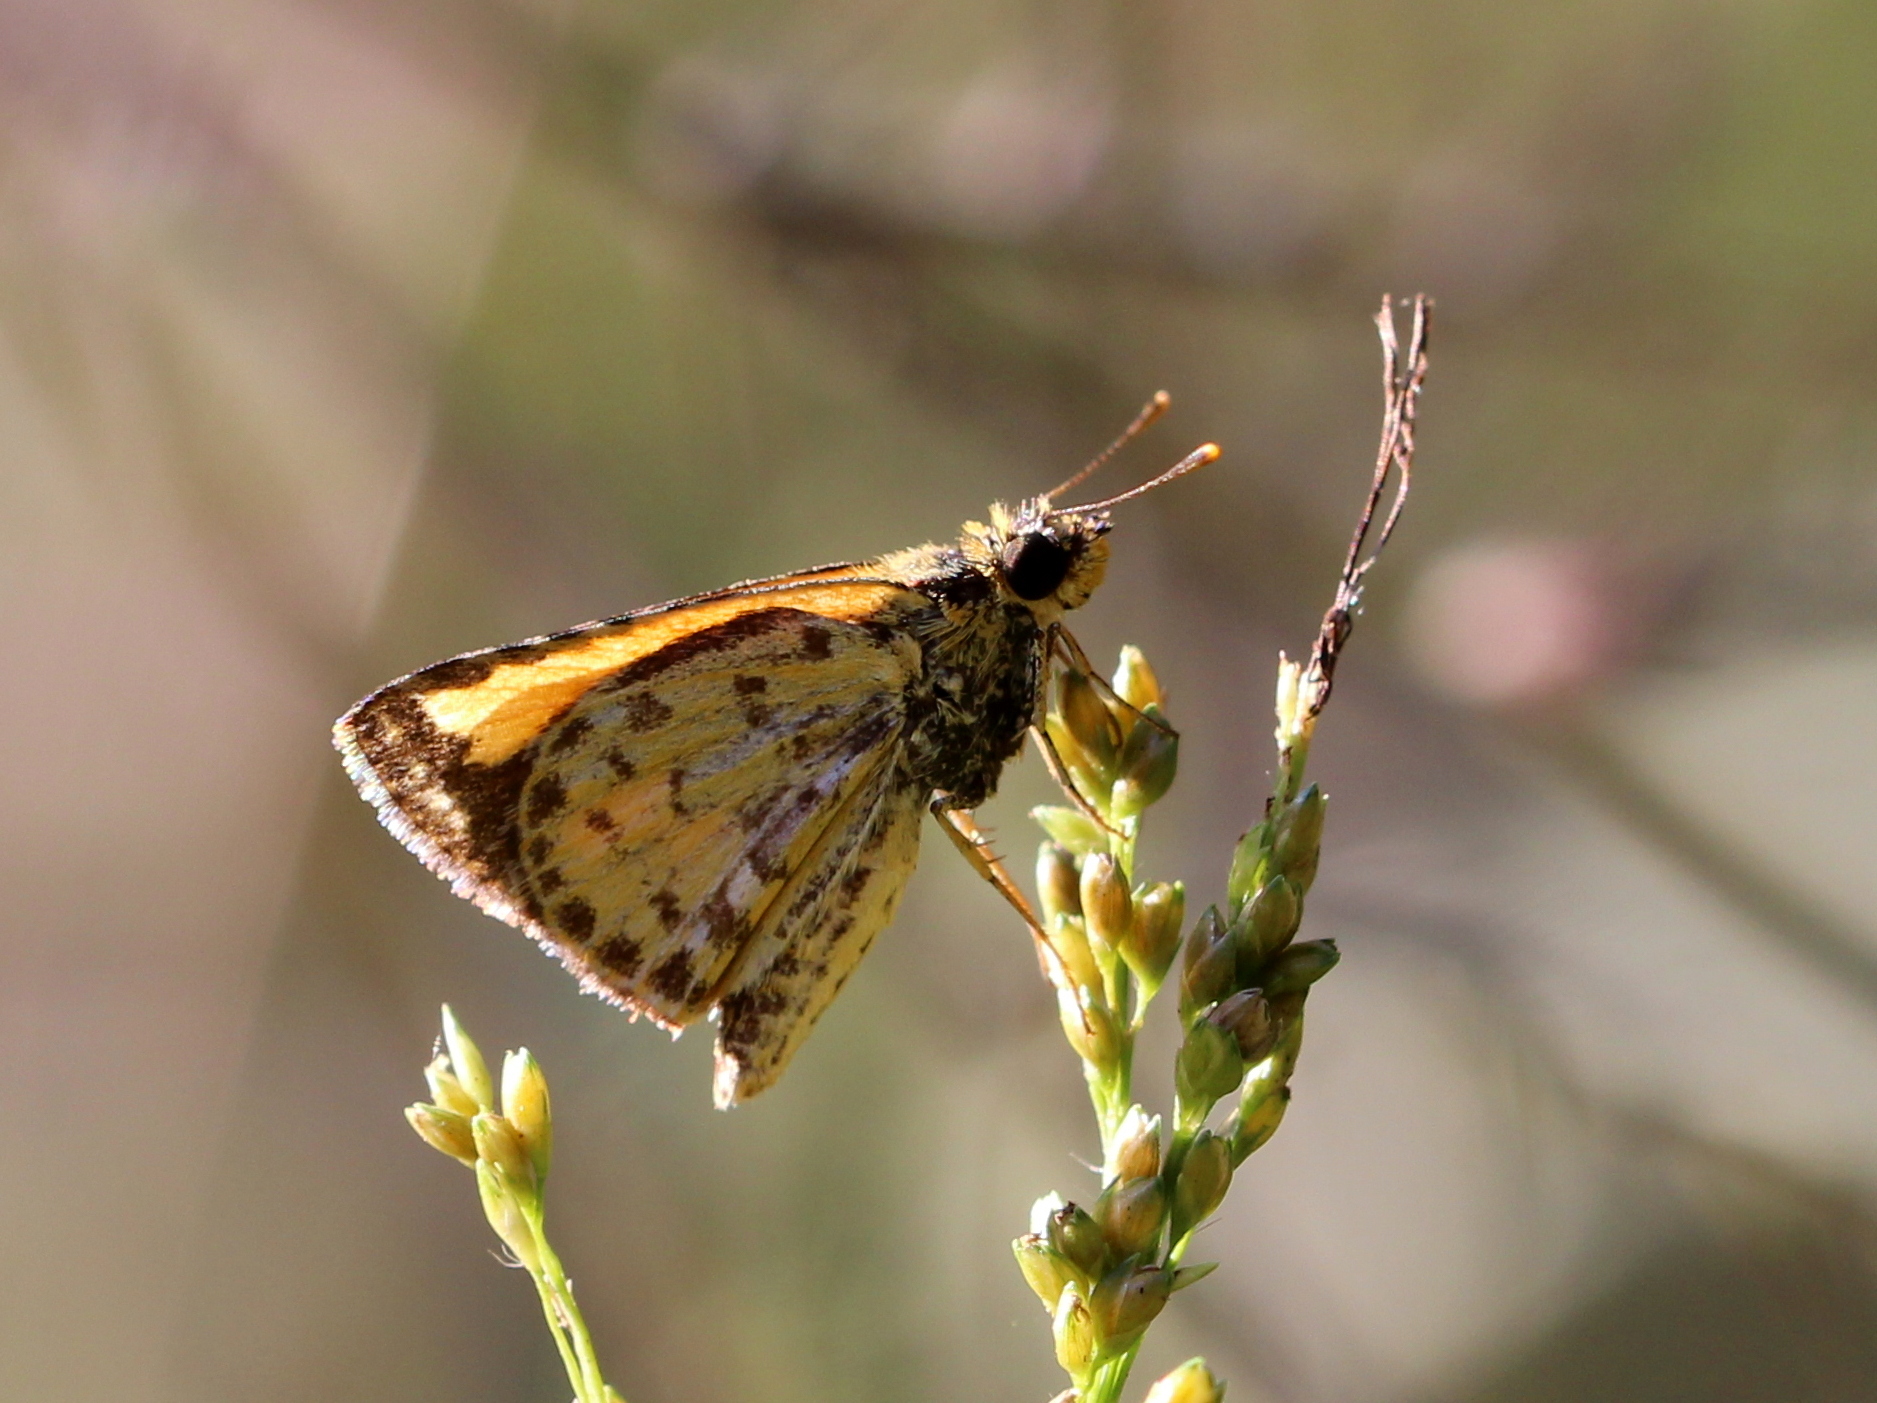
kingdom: Animalia
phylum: Arthropoda
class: Insecta
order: Lepidoptera
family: Hesperiidae
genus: Ampittia
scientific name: Ampittia dioscorides
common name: Common bush hopper
